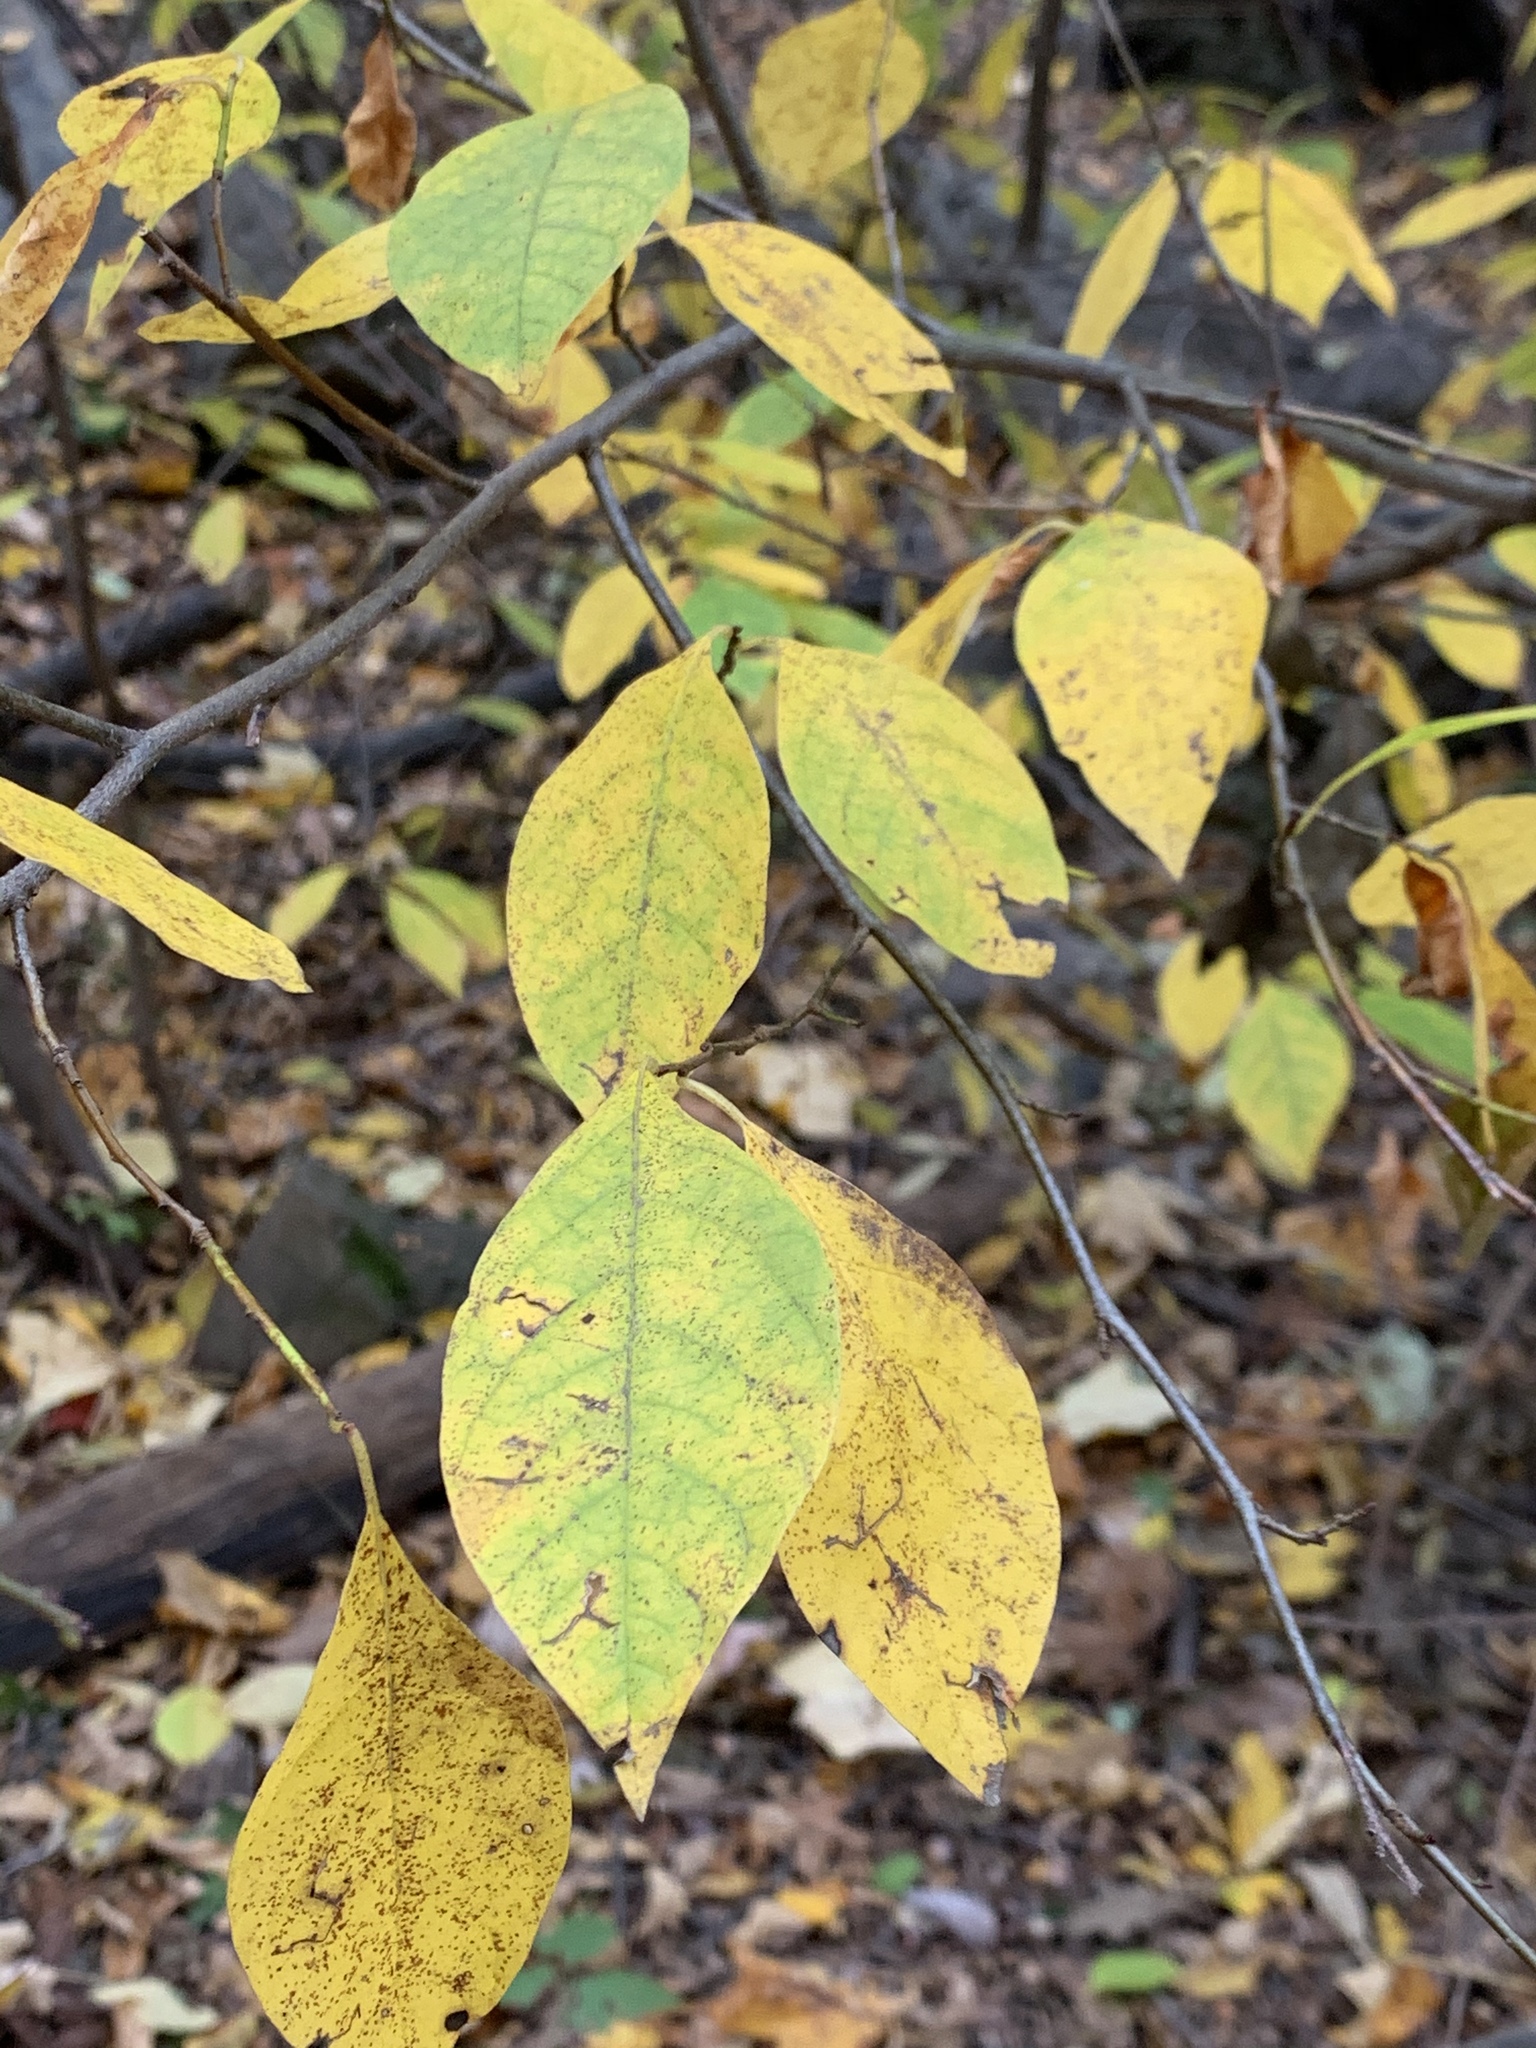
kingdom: Plantae
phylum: Tracheophyta
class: Magnoliopsida
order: Laurales
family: Lauraceae
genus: Lindera
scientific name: Lindera benzoin
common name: Spicebush
